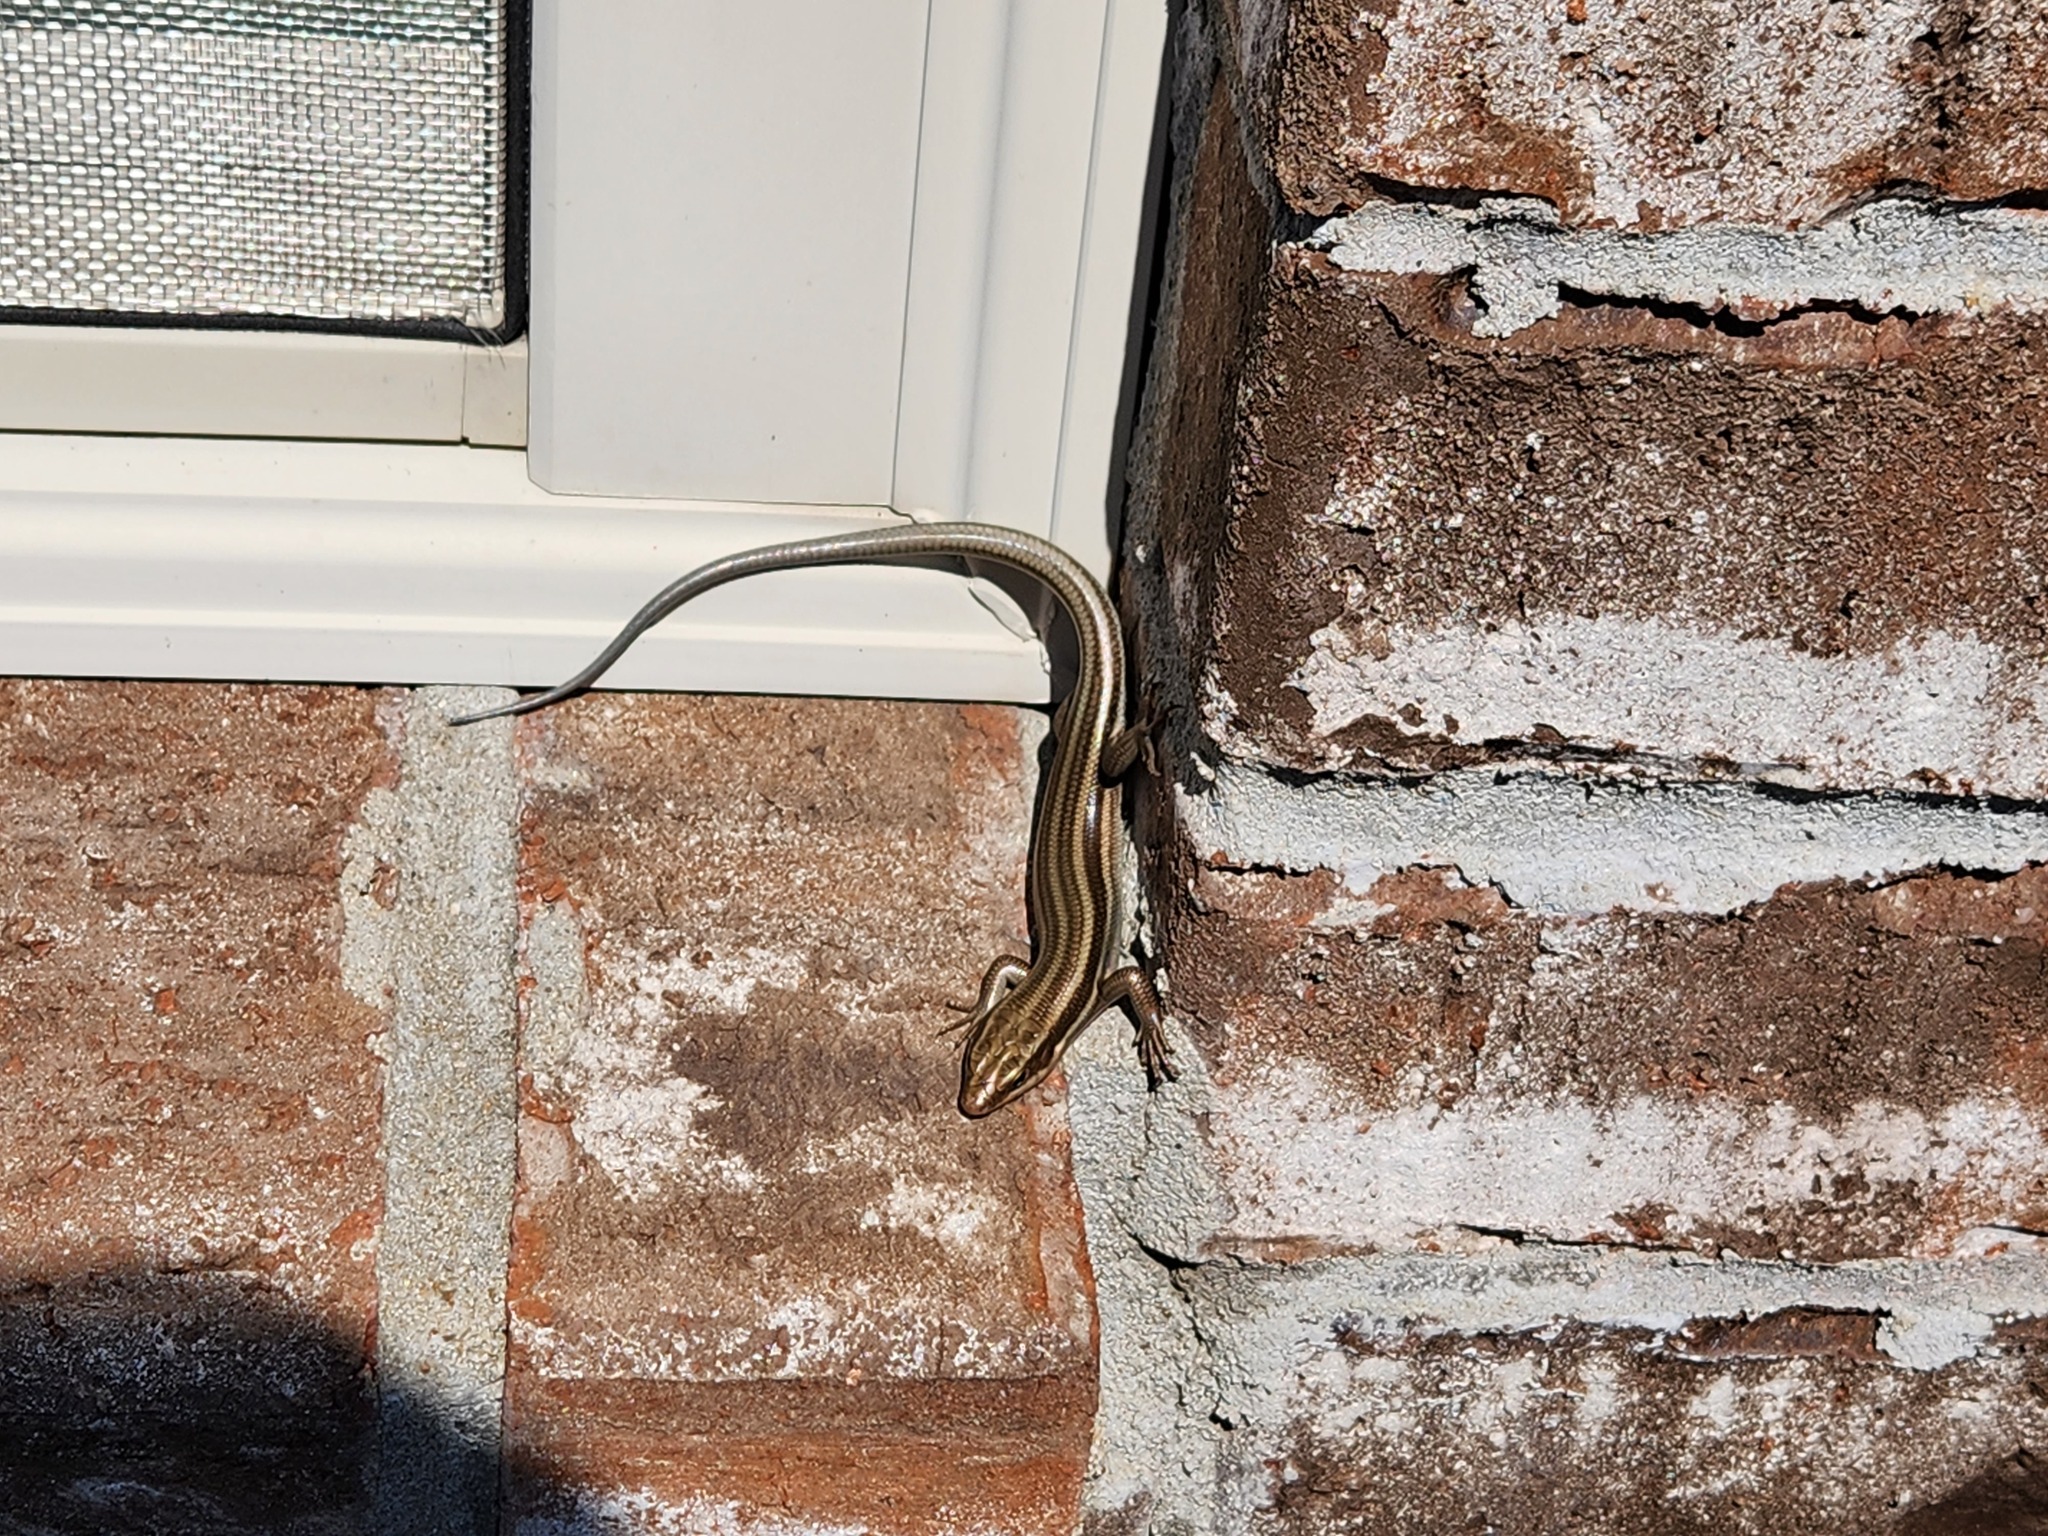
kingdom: Animalia
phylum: Chordata
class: Squamata
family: Scincidae
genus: Plestiodon
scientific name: Plestiodon fasciatus
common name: Five-lined skink
